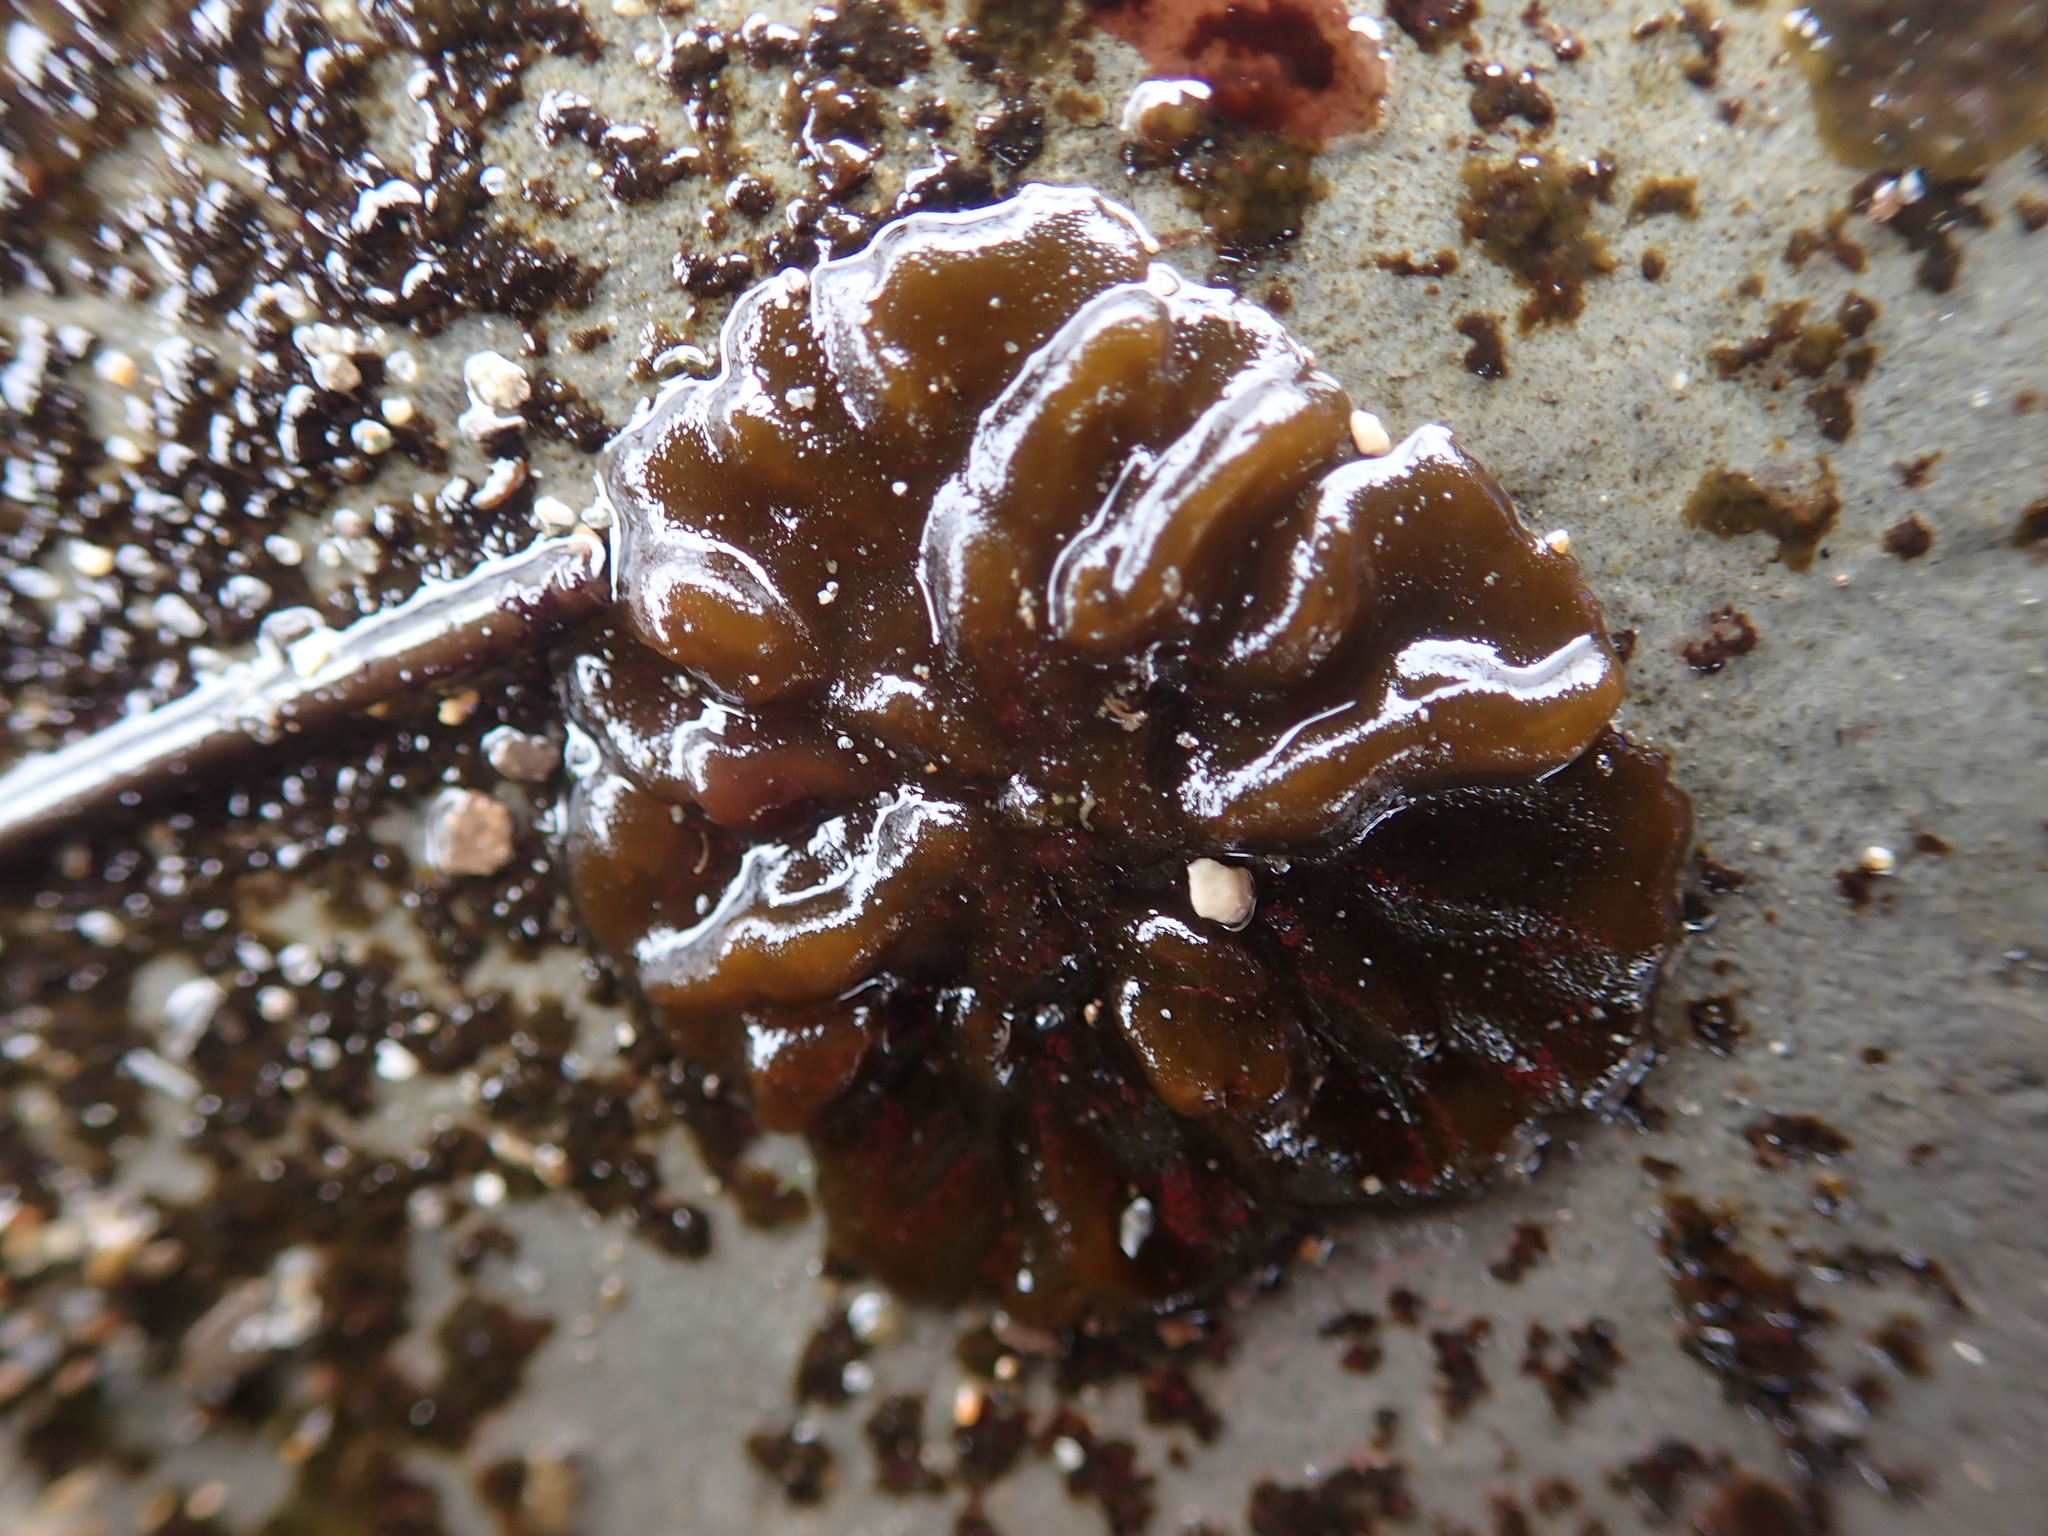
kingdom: Chromista
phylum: Ochrophyta
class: Phaeophyceae
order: Ectocarpales
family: Petrospongiaceae
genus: Petrospongium
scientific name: Petrospongium rugosum
